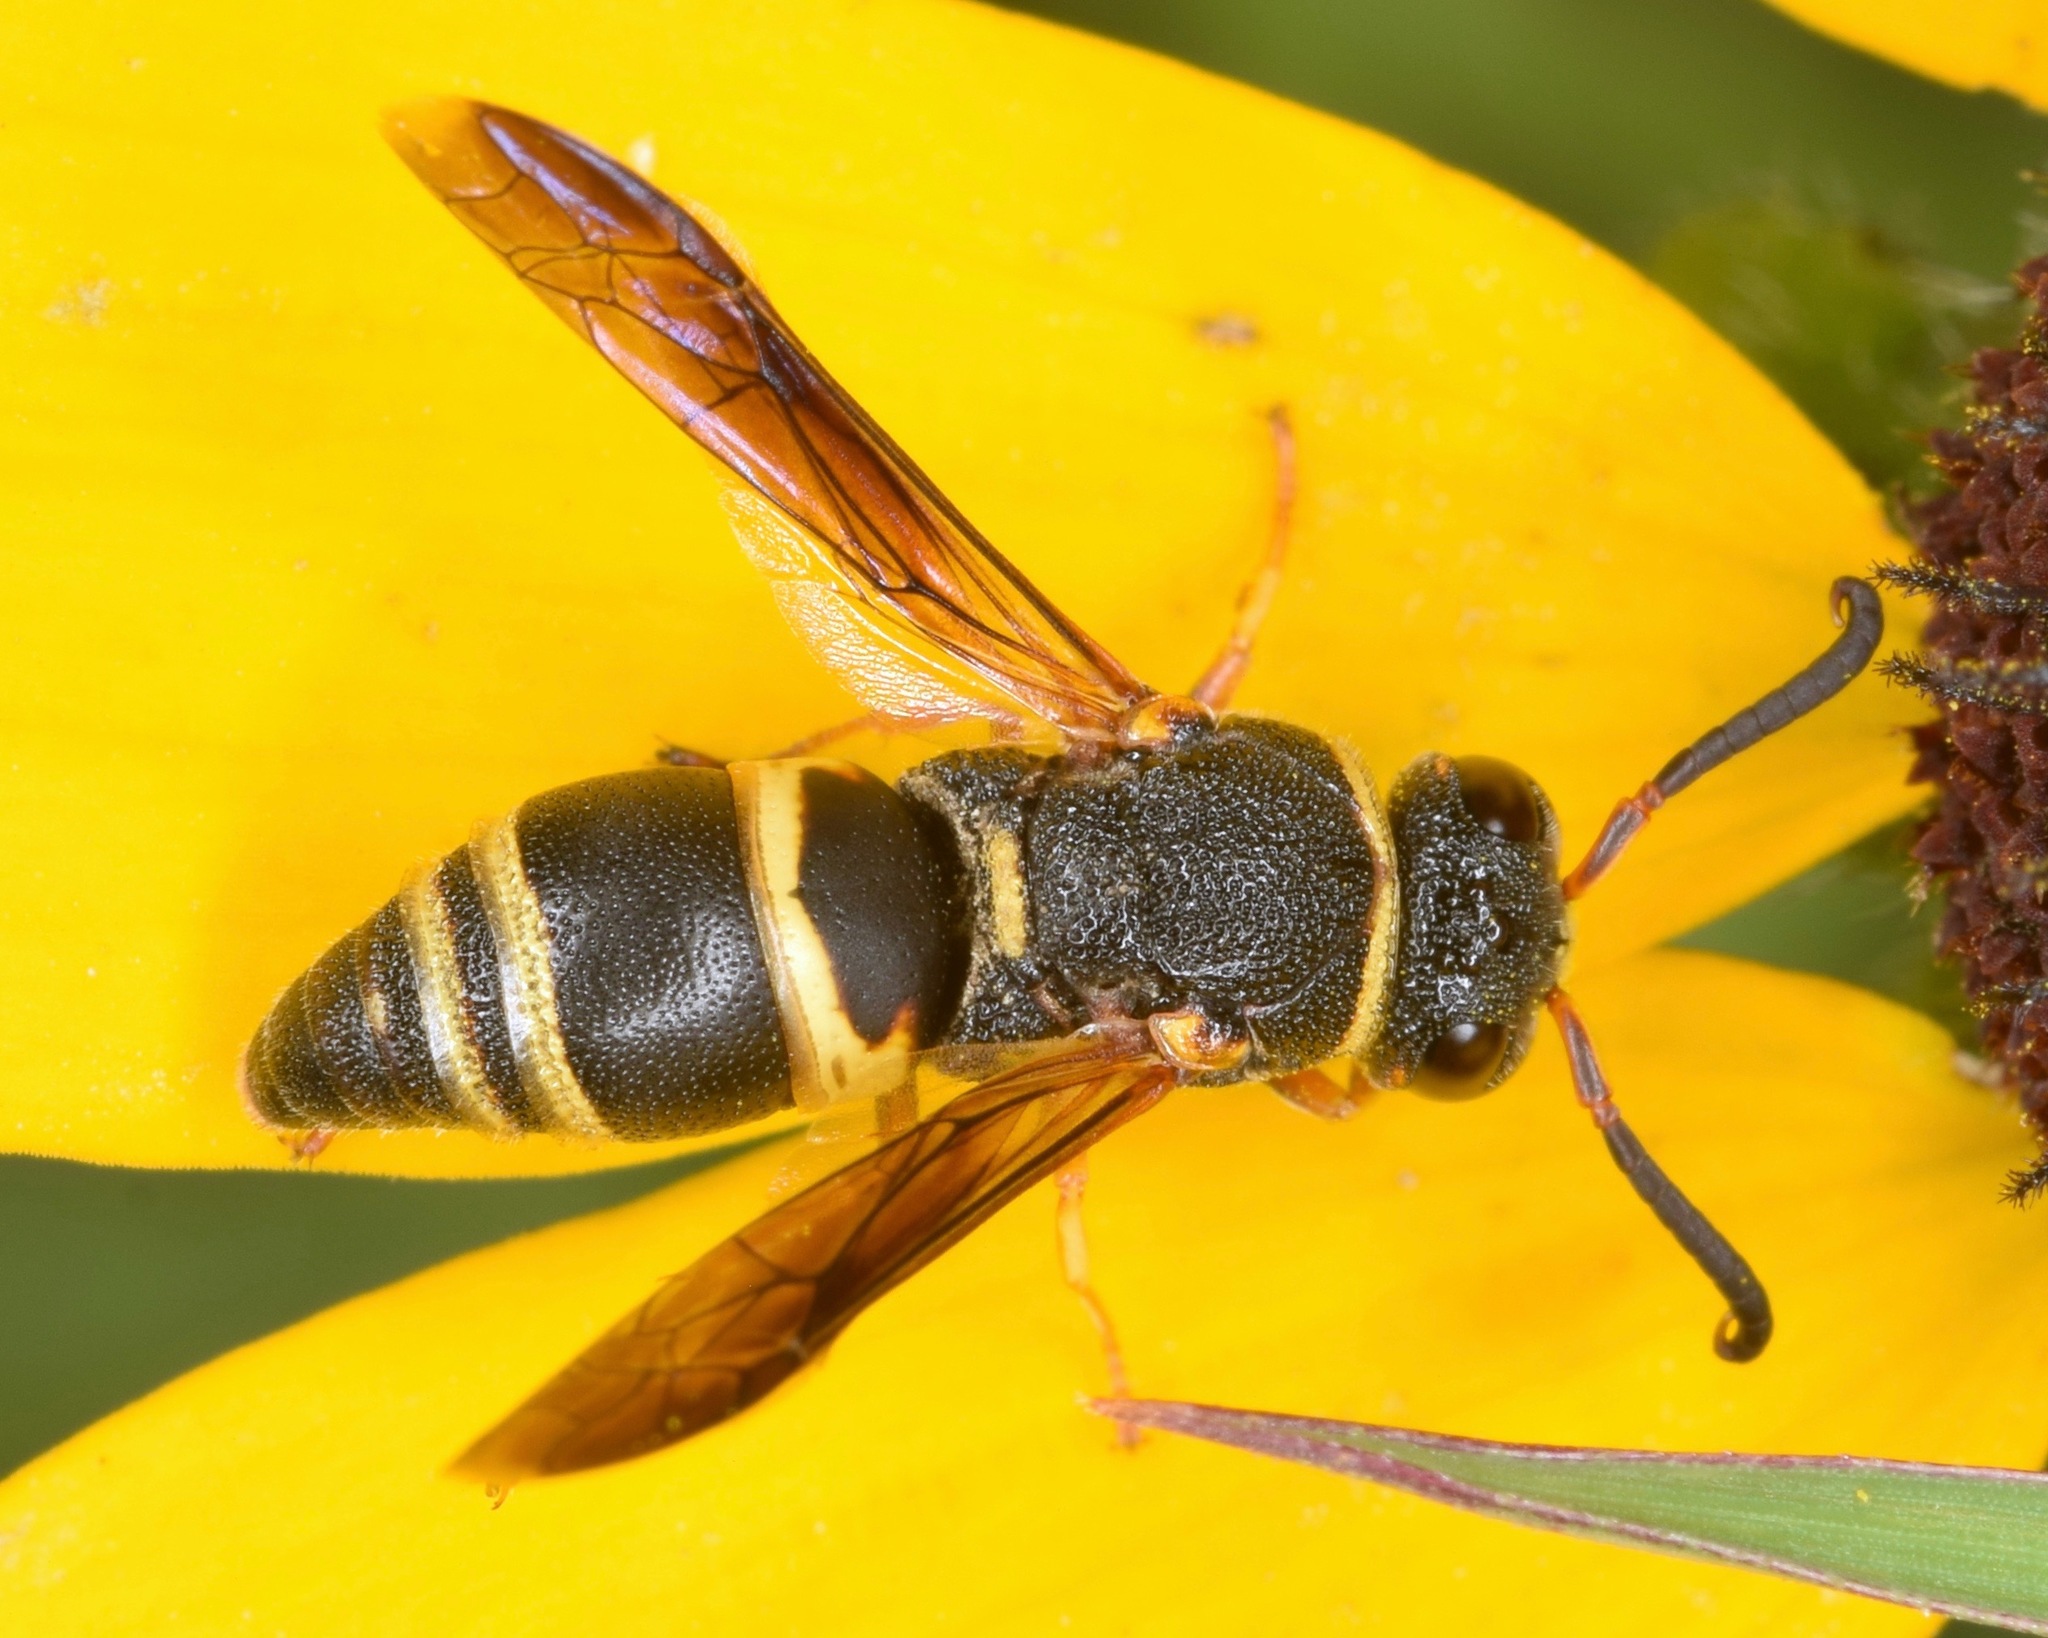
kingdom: Animalia
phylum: Arthropoda
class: Insecta
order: Hymenoptera
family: Eumenidae
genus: Euodynerus
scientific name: Euodynerus hidalgo
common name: Wasp
